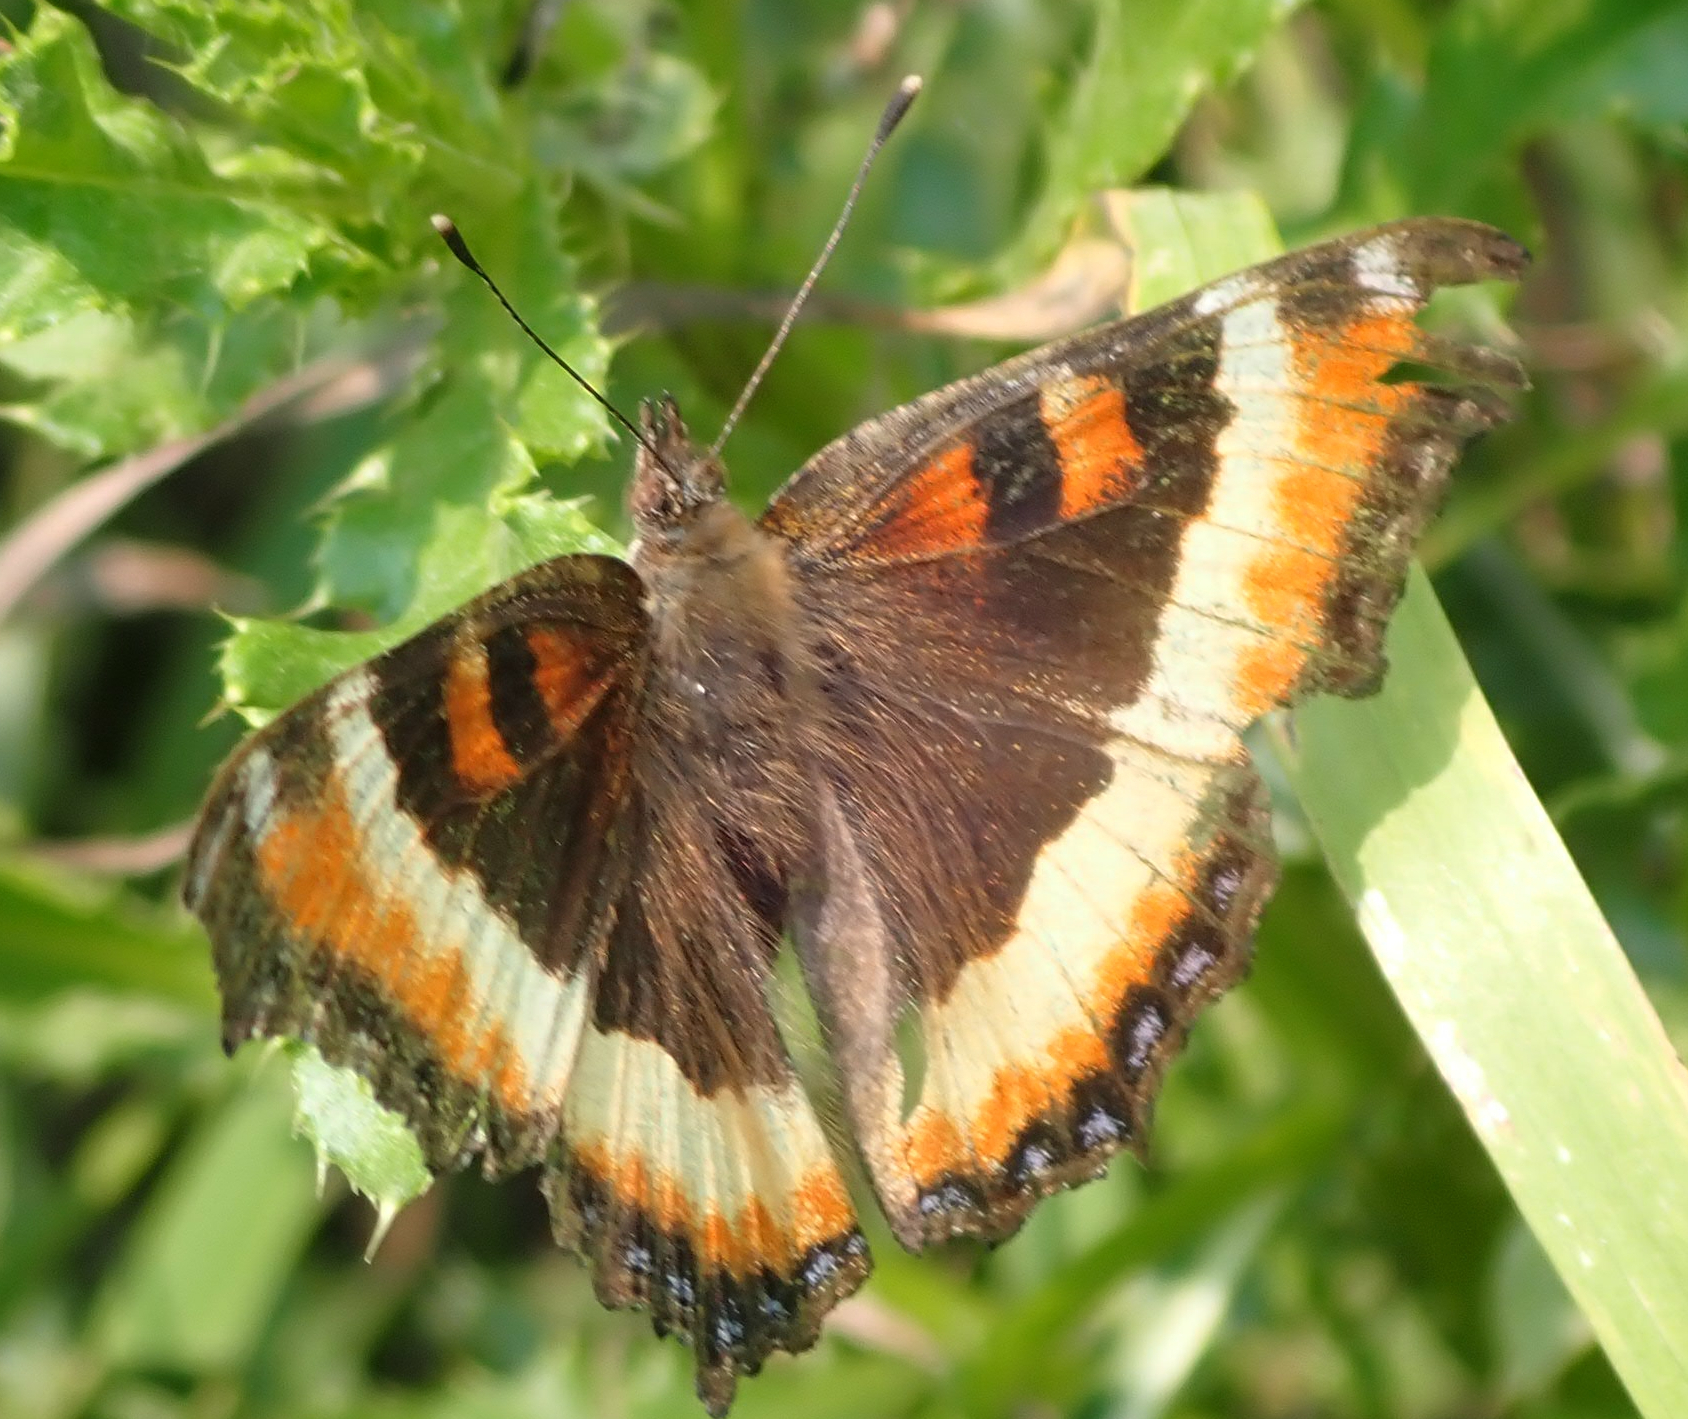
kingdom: Animalia
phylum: Arthropoda
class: Insecta
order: Lepidoptera
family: Nymphalidae
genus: Aglais
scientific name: Aglais milberti
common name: Milbert's tortoiseshell
